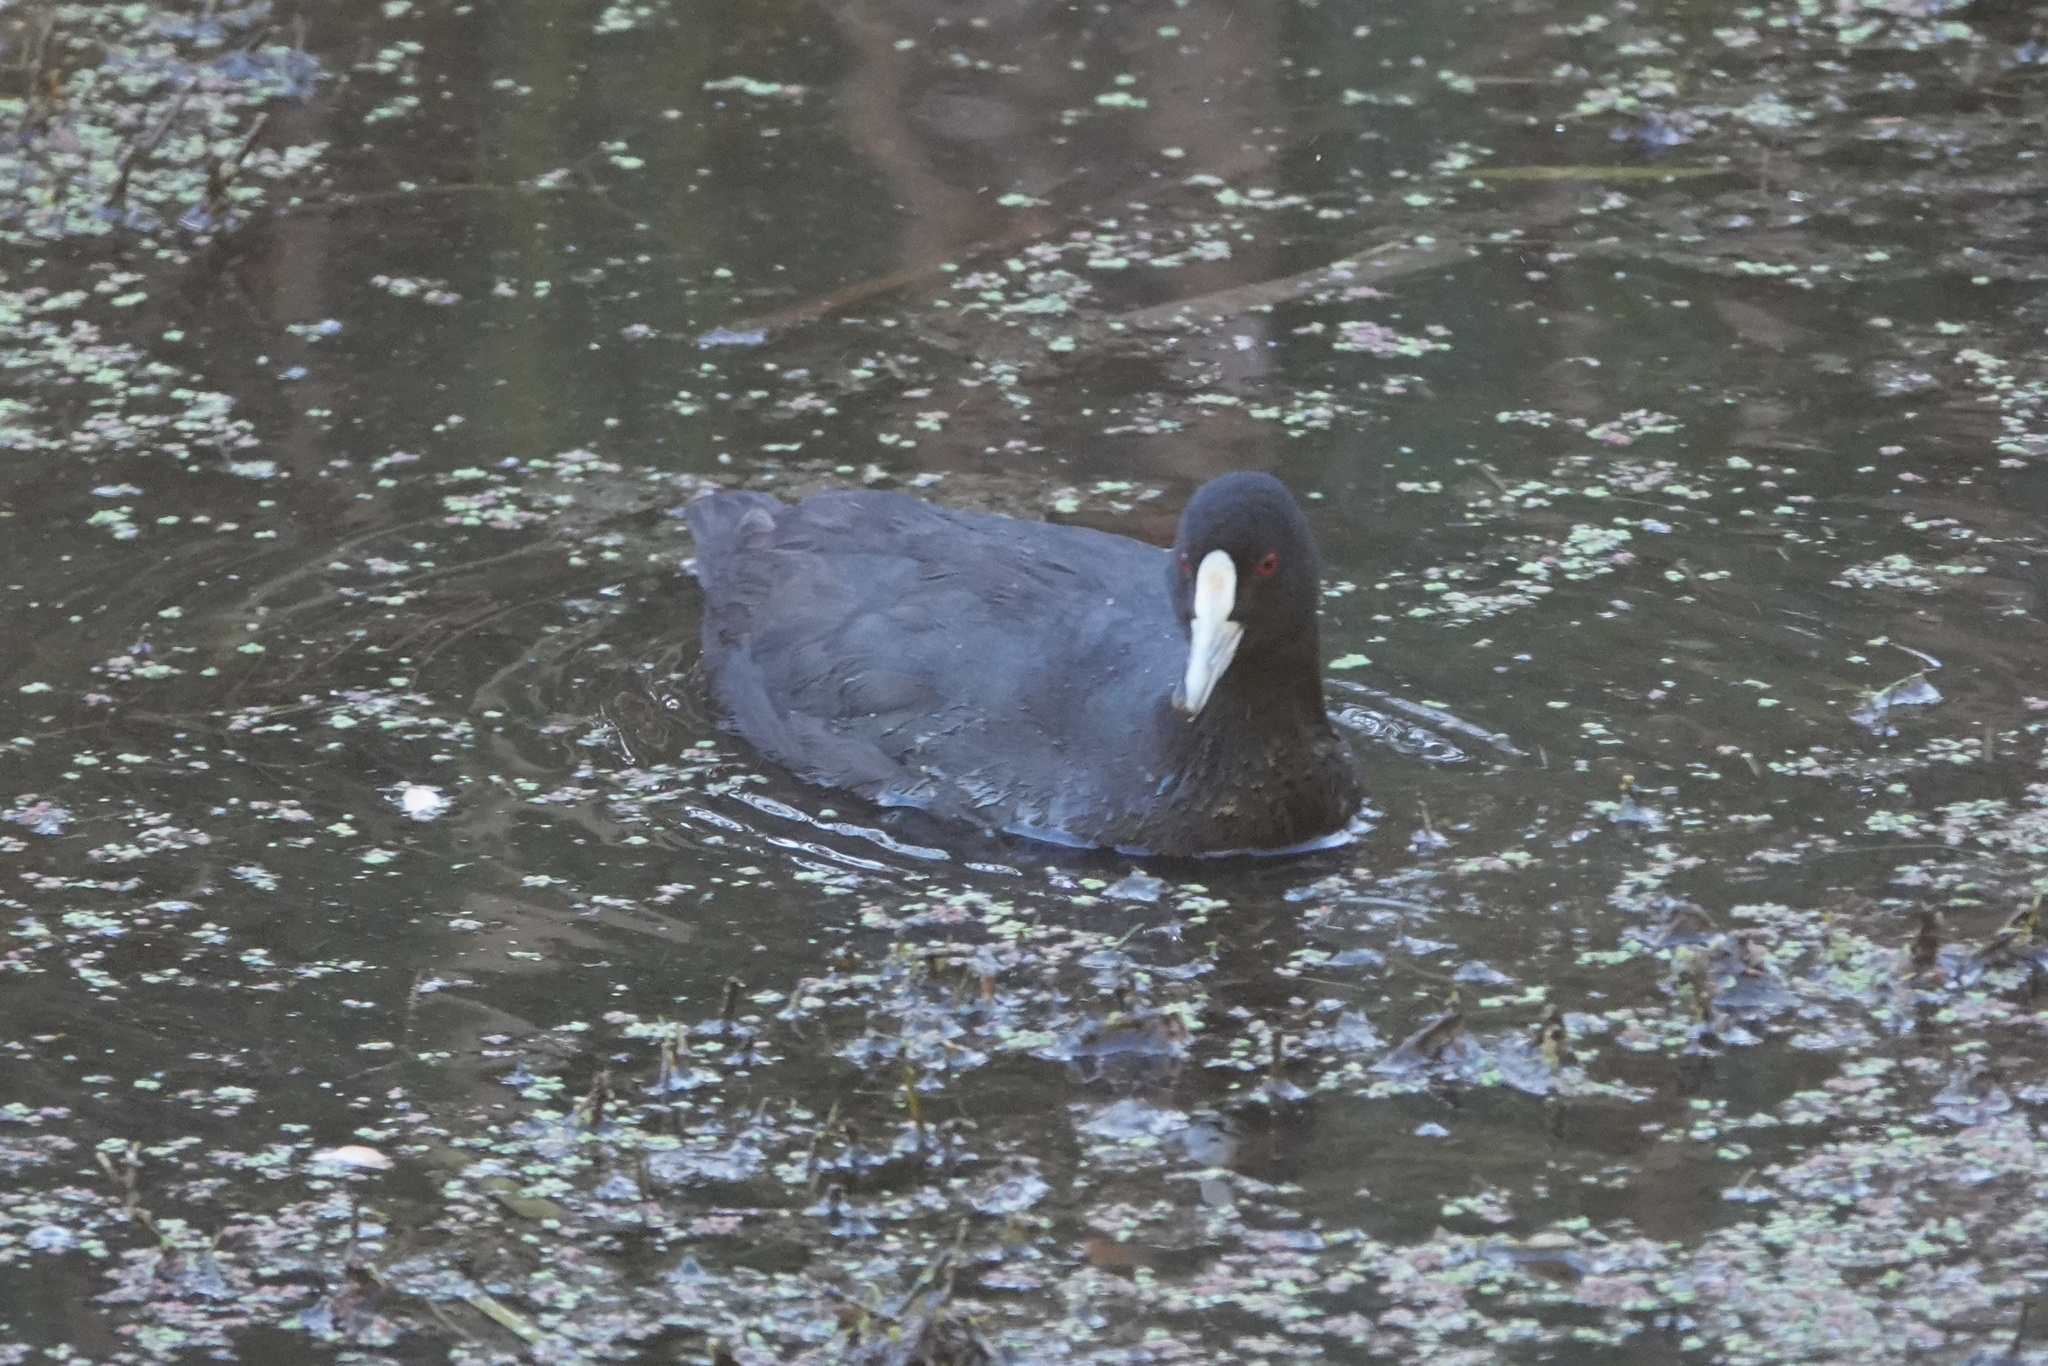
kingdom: Animalia
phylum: Chordata
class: Aves
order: Gruiformes
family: Rallidae
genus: Fulica
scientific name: Fulica atra
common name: Eurasian coot
